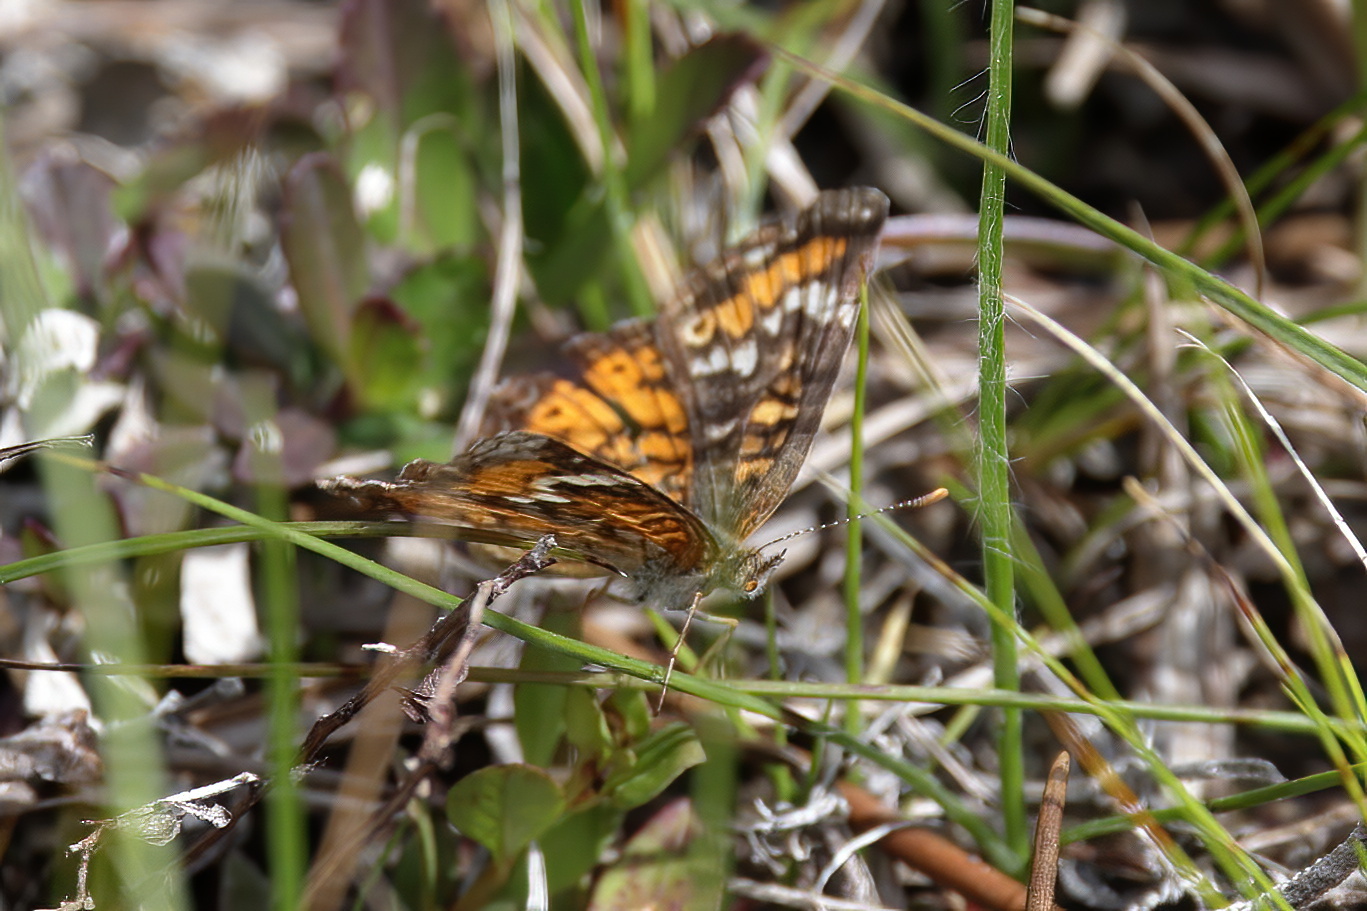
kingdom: Animalia
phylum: Arthropoda
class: Insecta
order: Lepidoptera
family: Nymphalidae
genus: Phyciodes
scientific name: Phyciodes phaon
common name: Phaon crescent
